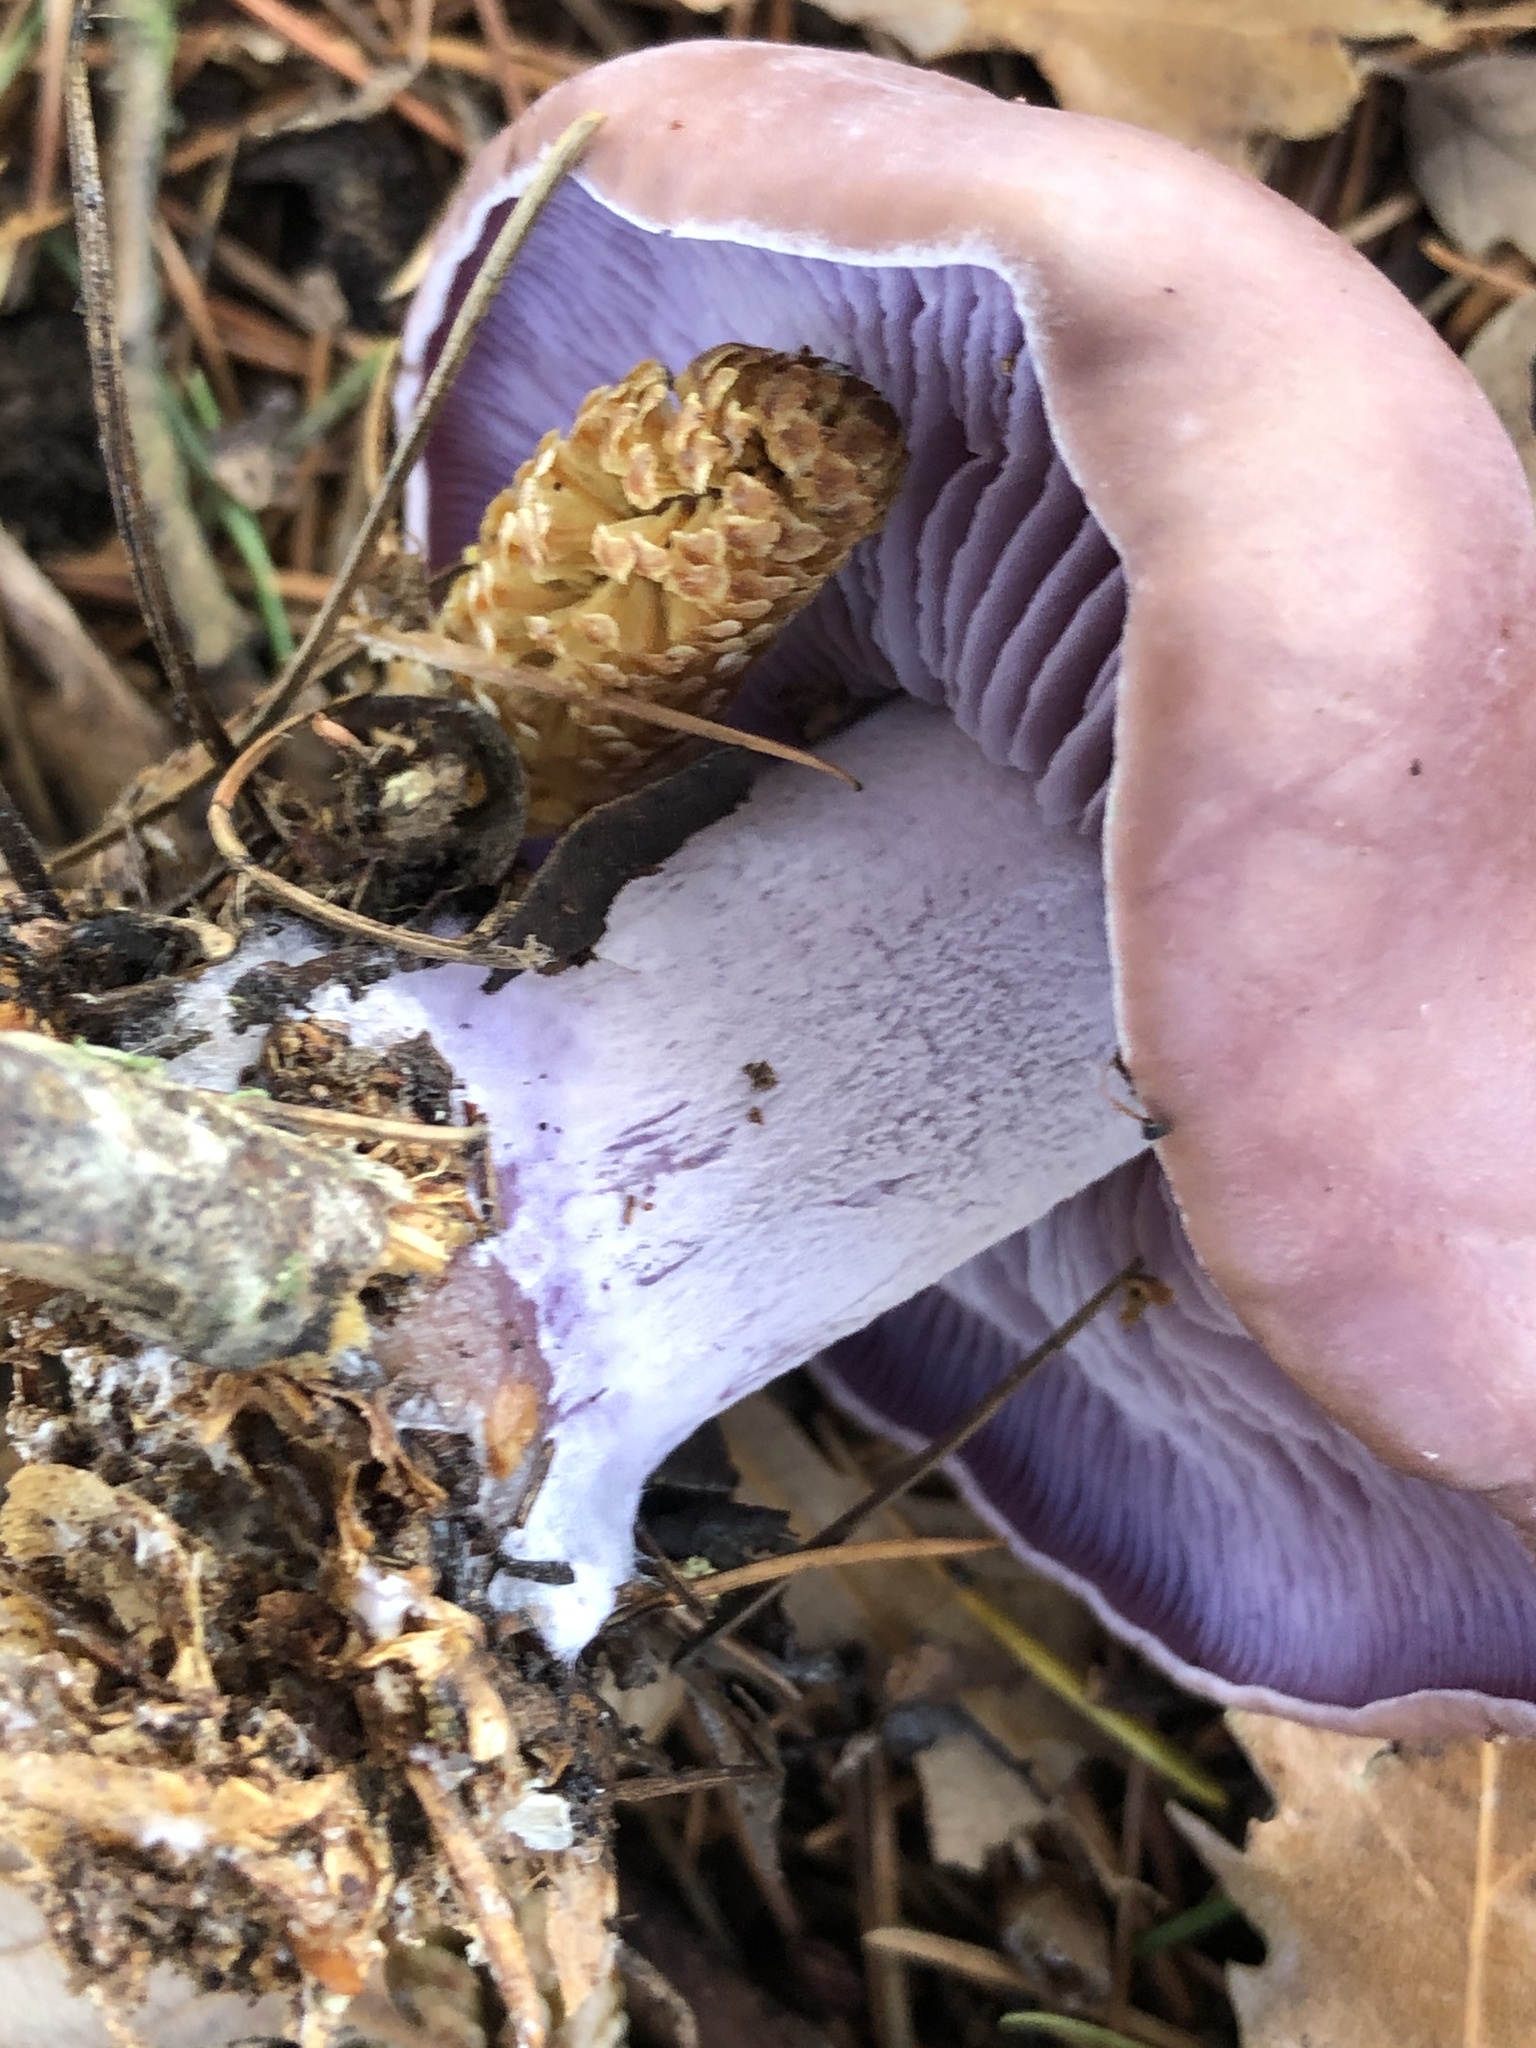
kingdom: Fungi
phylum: Basidiomycota
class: Agaricomycetes
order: Agaricales
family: Tricholomataceae
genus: Collybia
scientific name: Collybia
